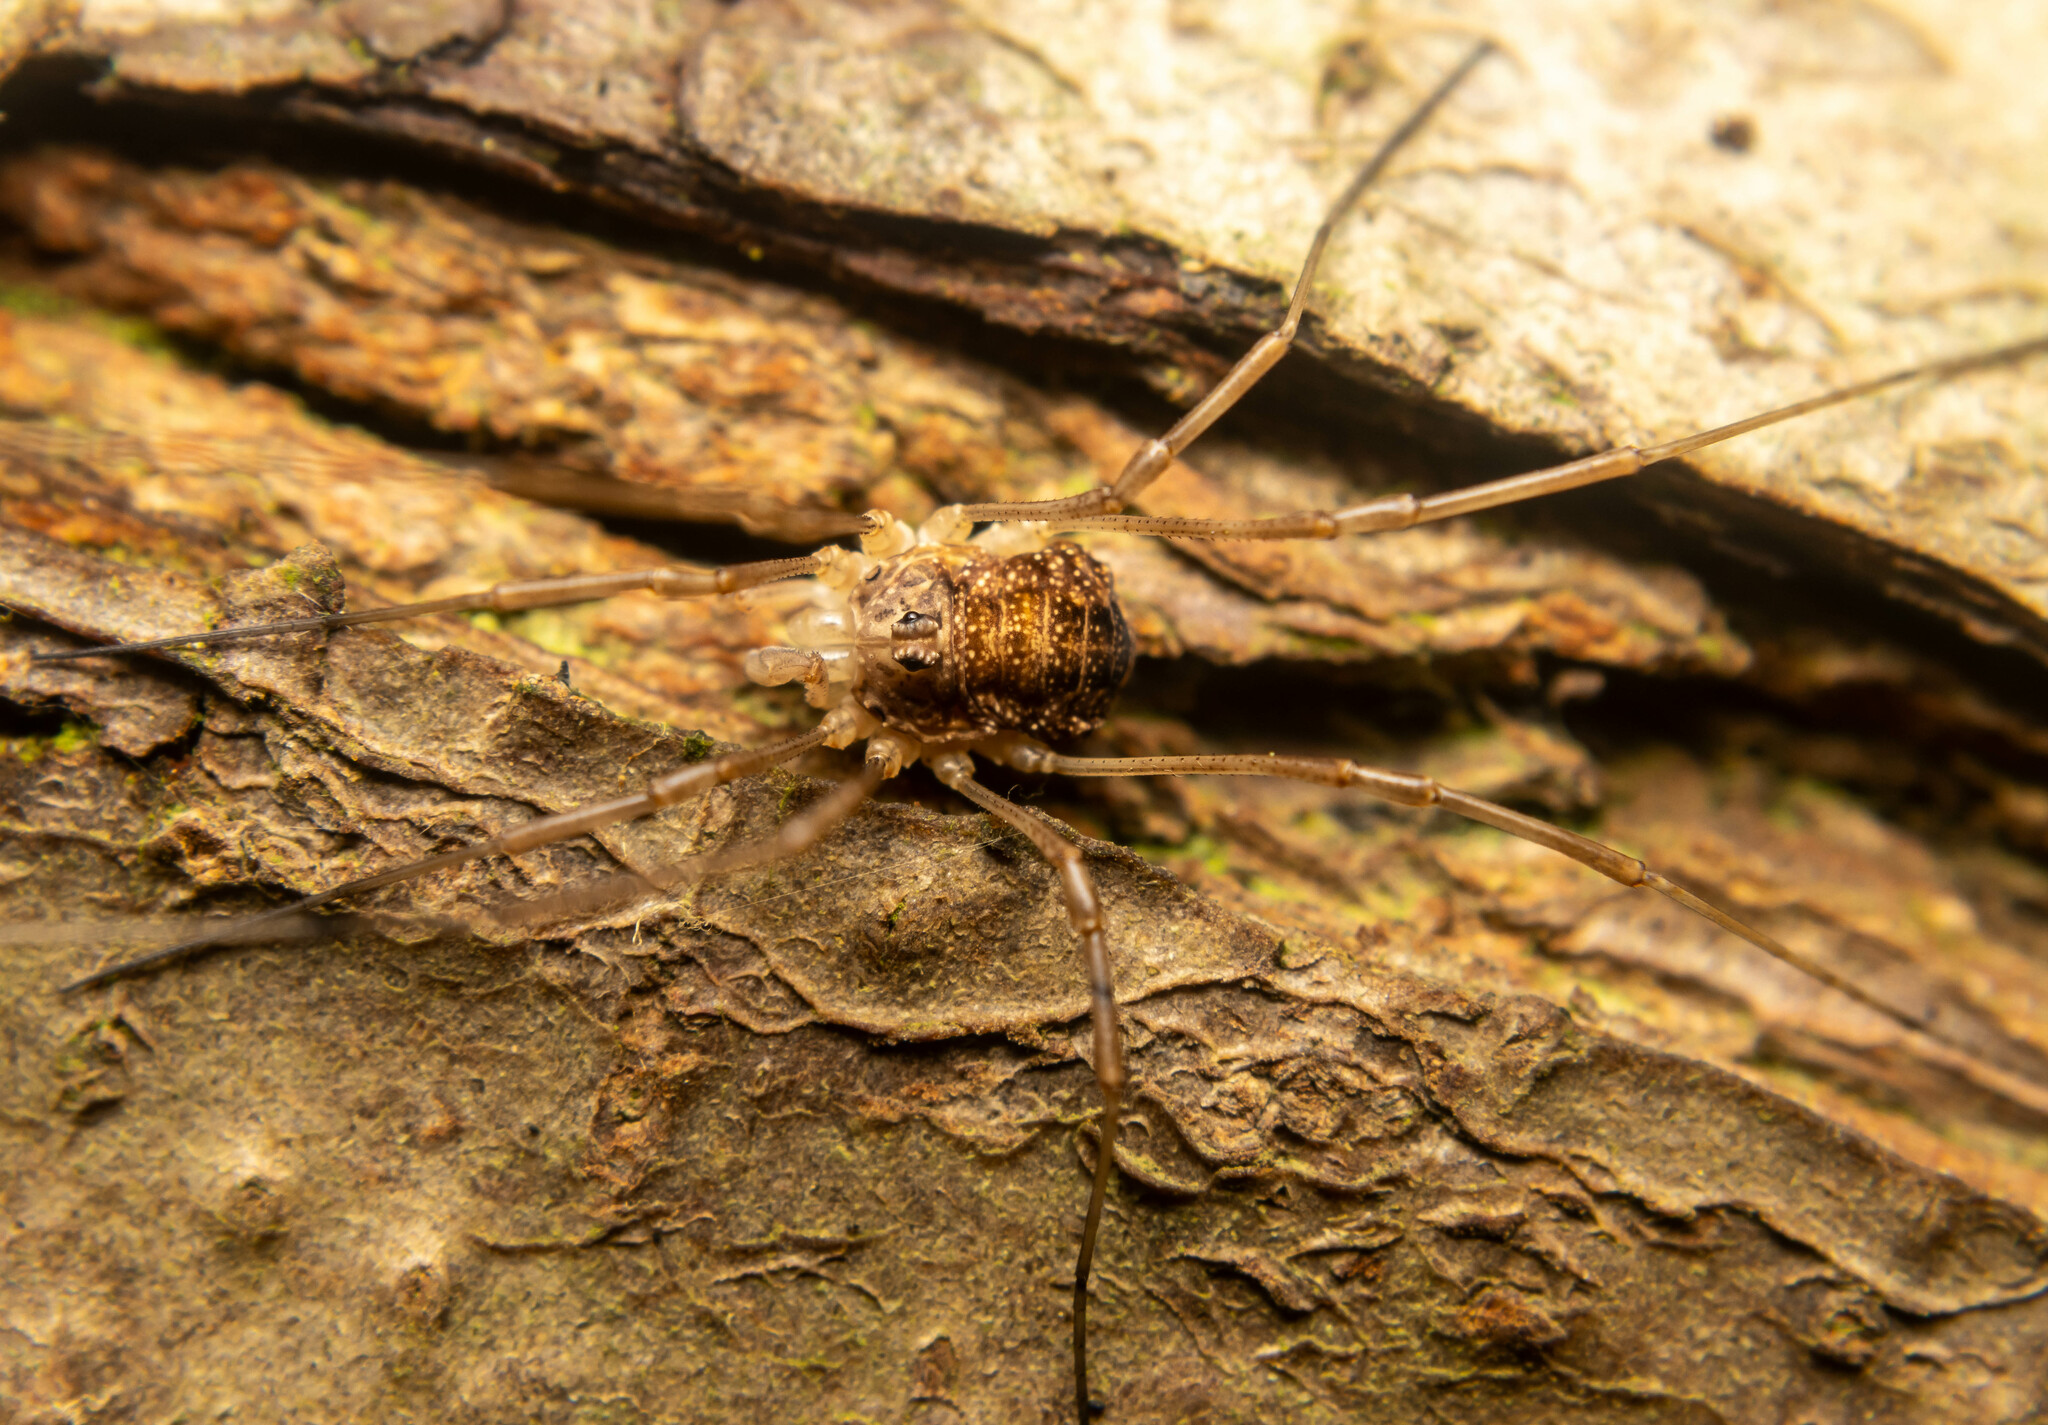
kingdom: Animalia
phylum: Arthropoda
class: Arachnida
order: Opiliones
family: Phalangiidae
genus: Rilaena
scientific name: Rilaena triangularis
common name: Spring harvestman
